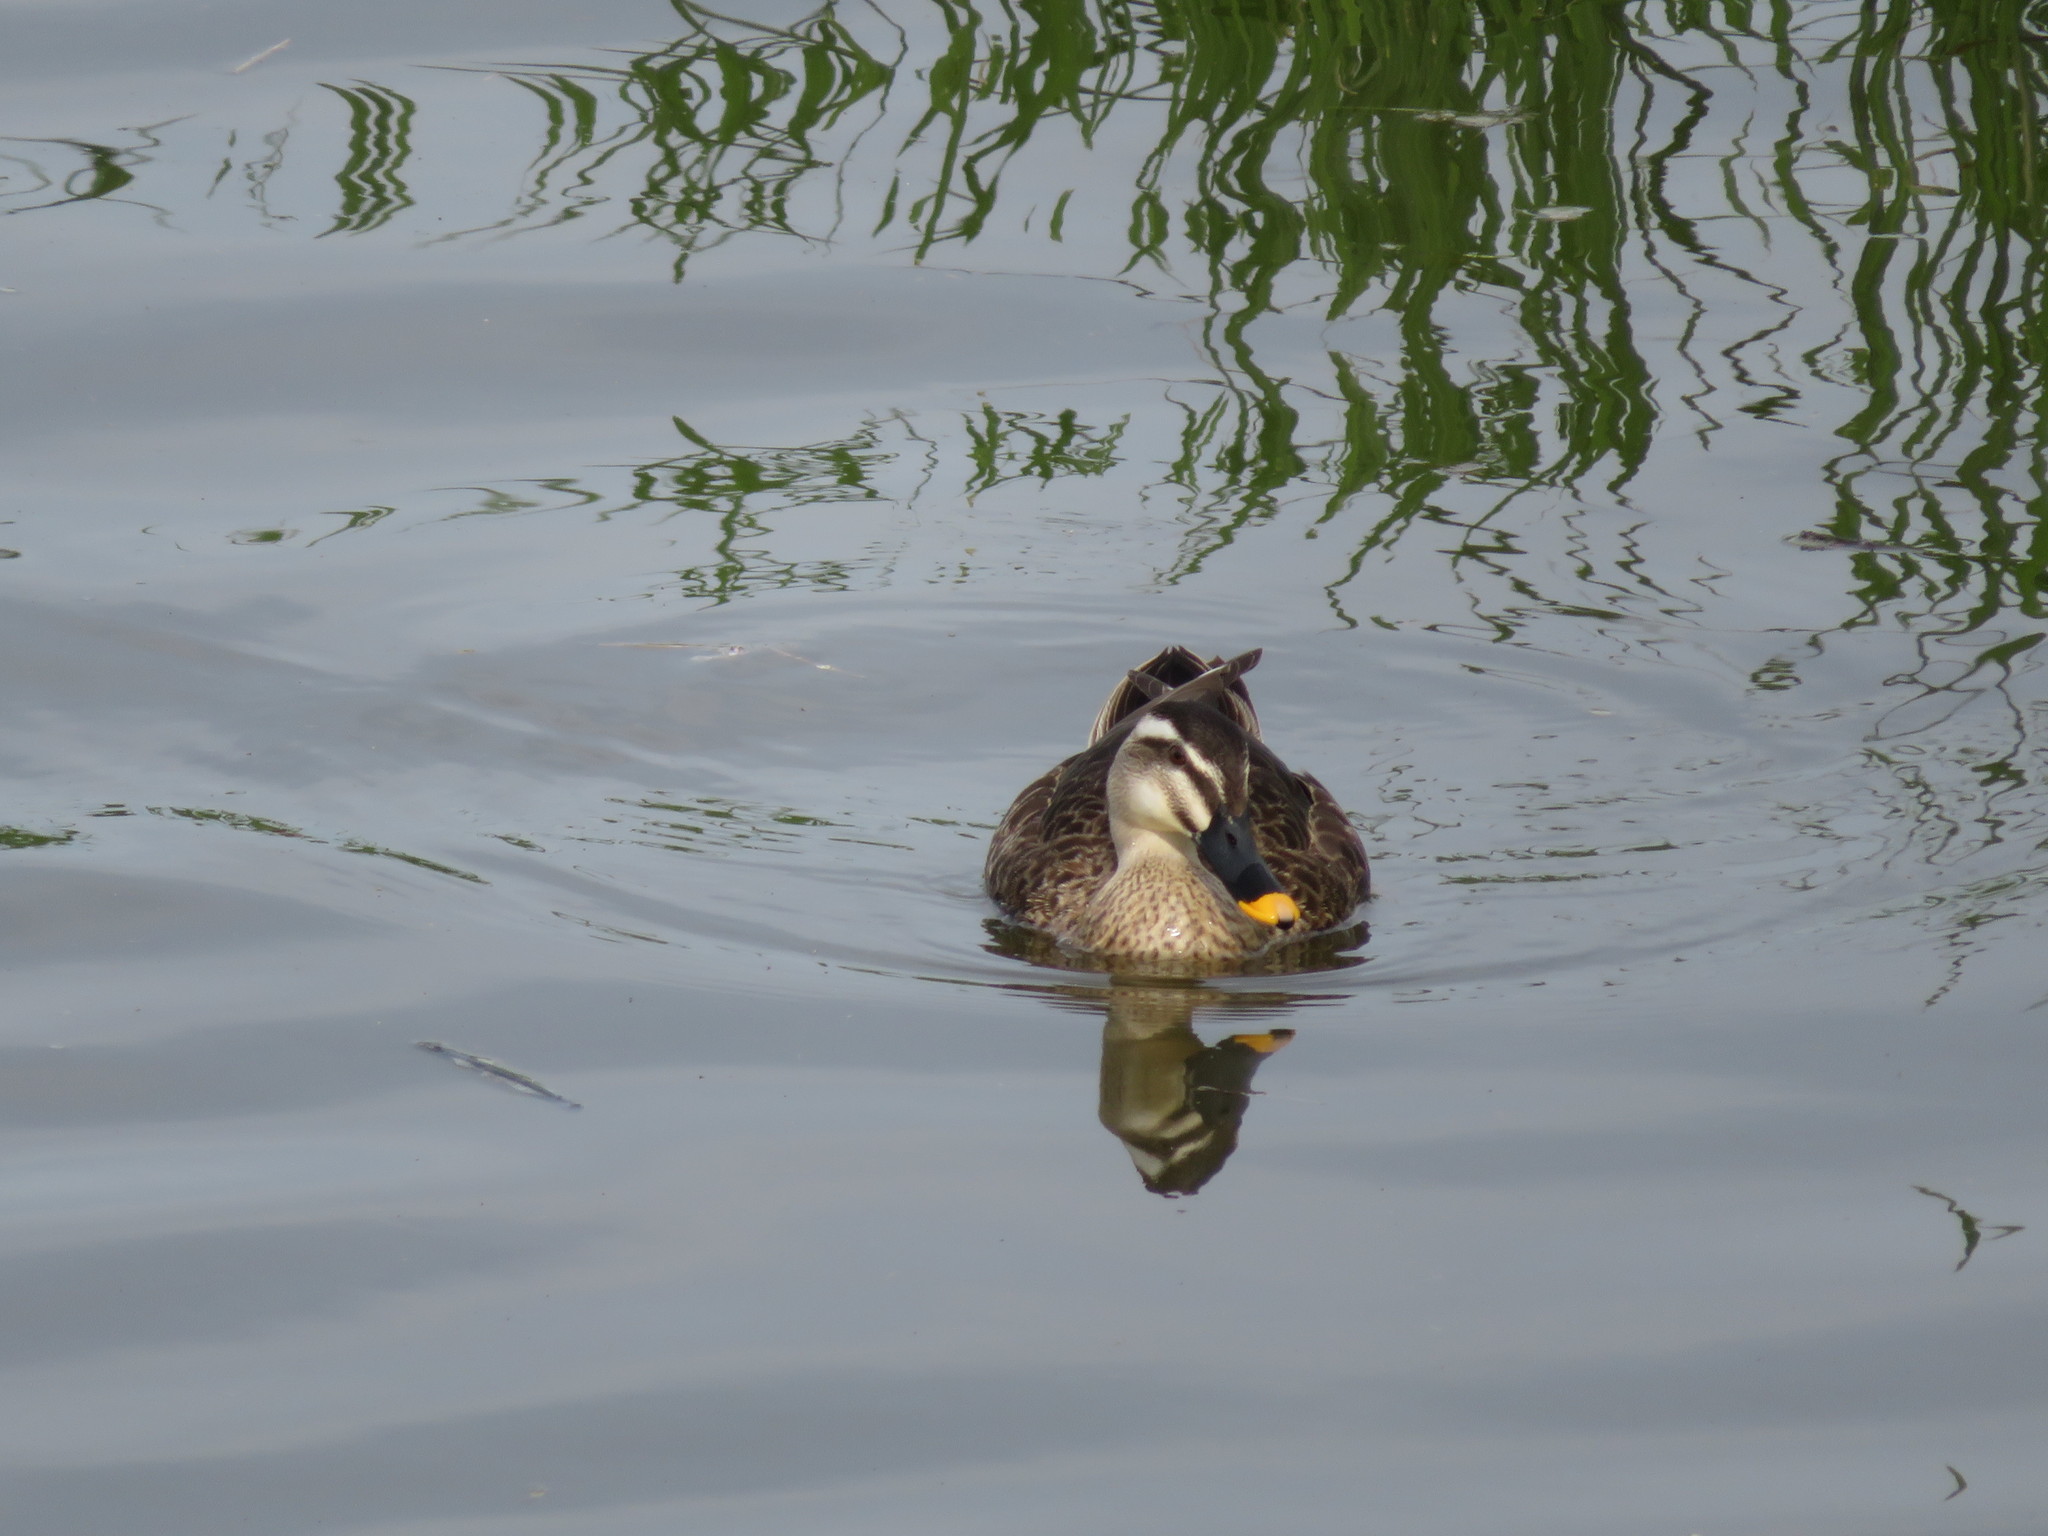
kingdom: Animalia
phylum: Chordata
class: Aves
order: Anseriformes
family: Anatidae
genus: Anas
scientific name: Anas zonorhyncha
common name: Eastern spot-billed duck
